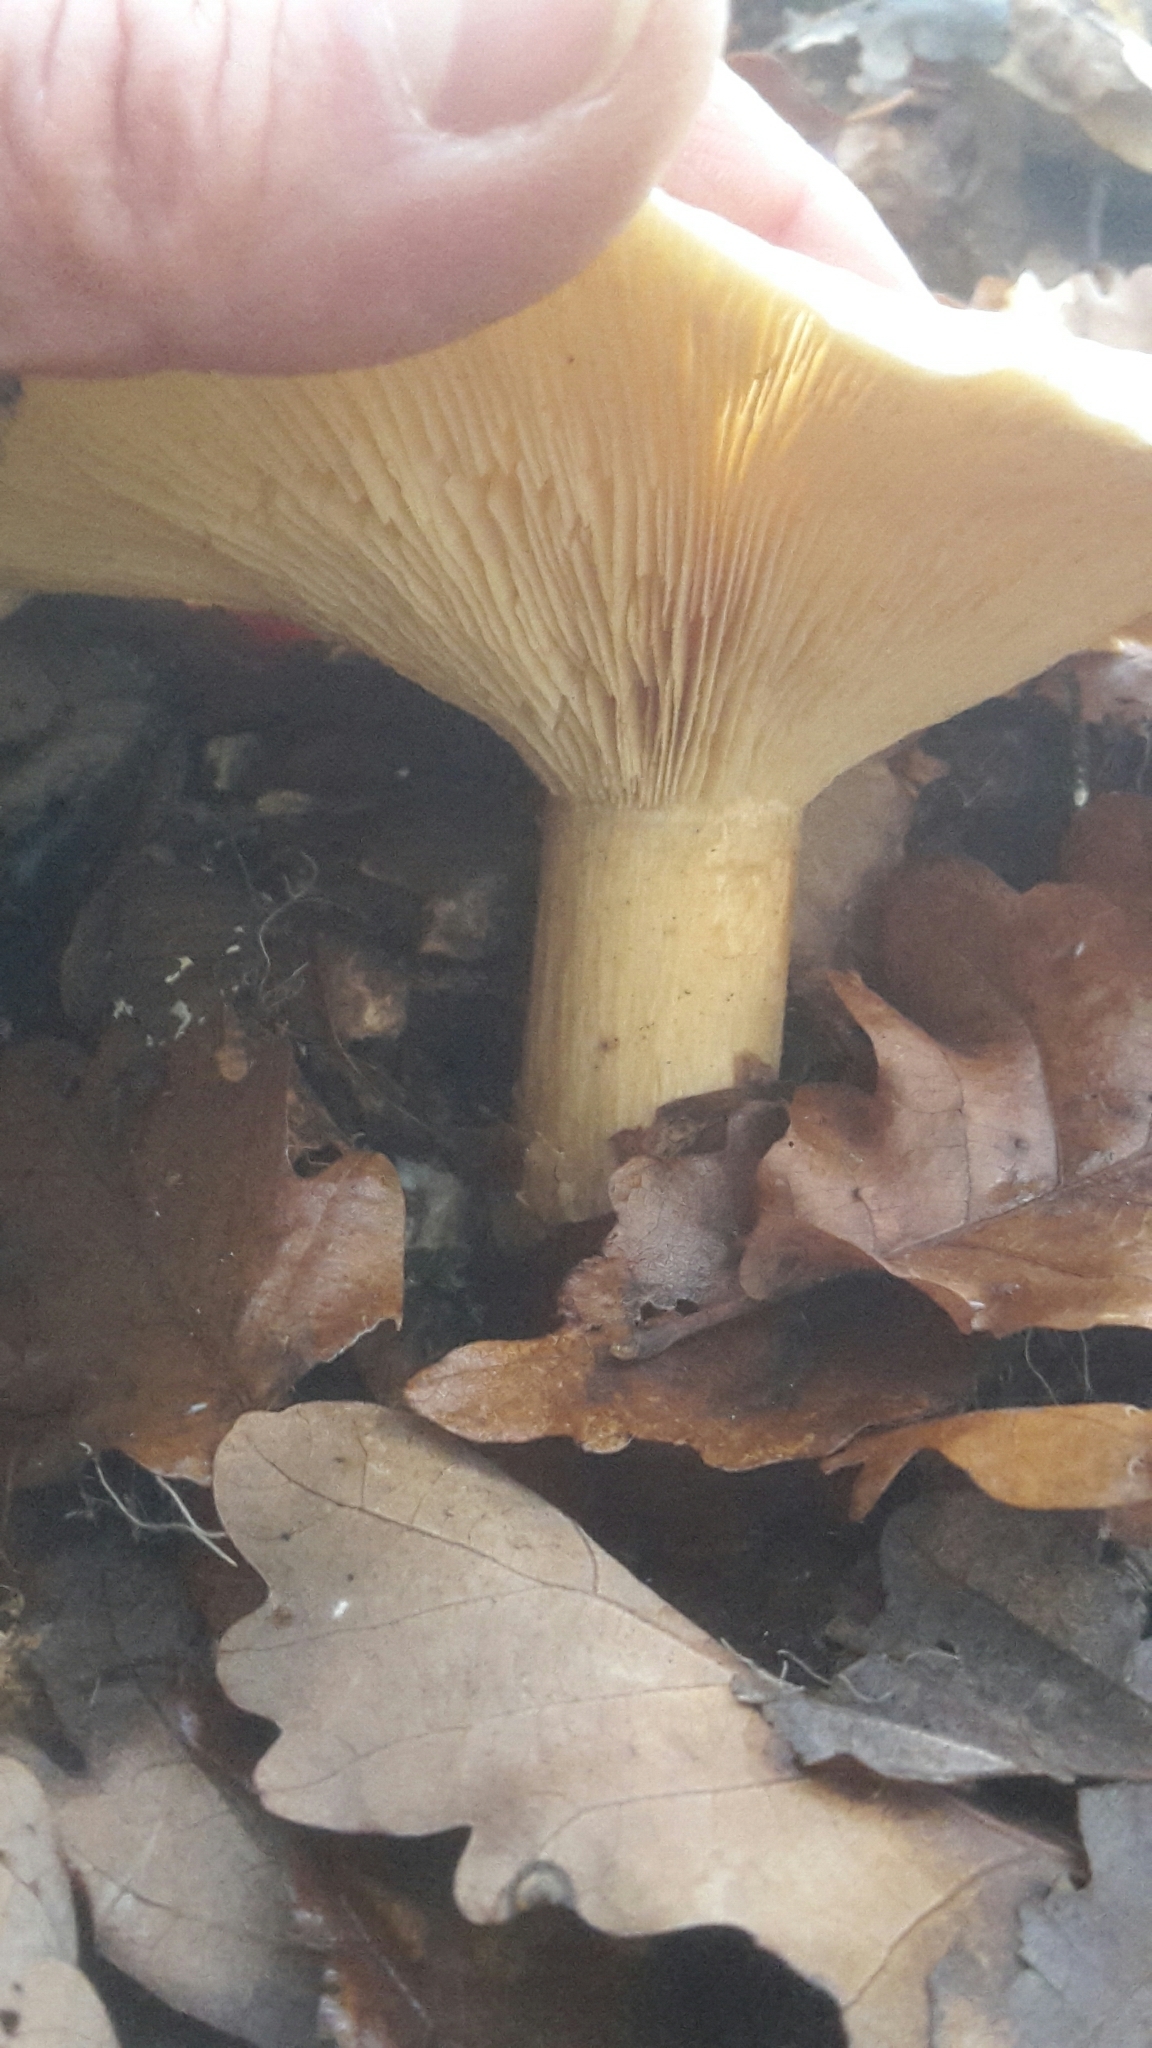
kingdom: Fungi
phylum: Basidiomycota
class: Agaricomycetes
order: Agaricales
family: Tricholomataceae
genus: Clitocybe
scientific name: Clitocybe nebularis
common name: Clouded agaric
